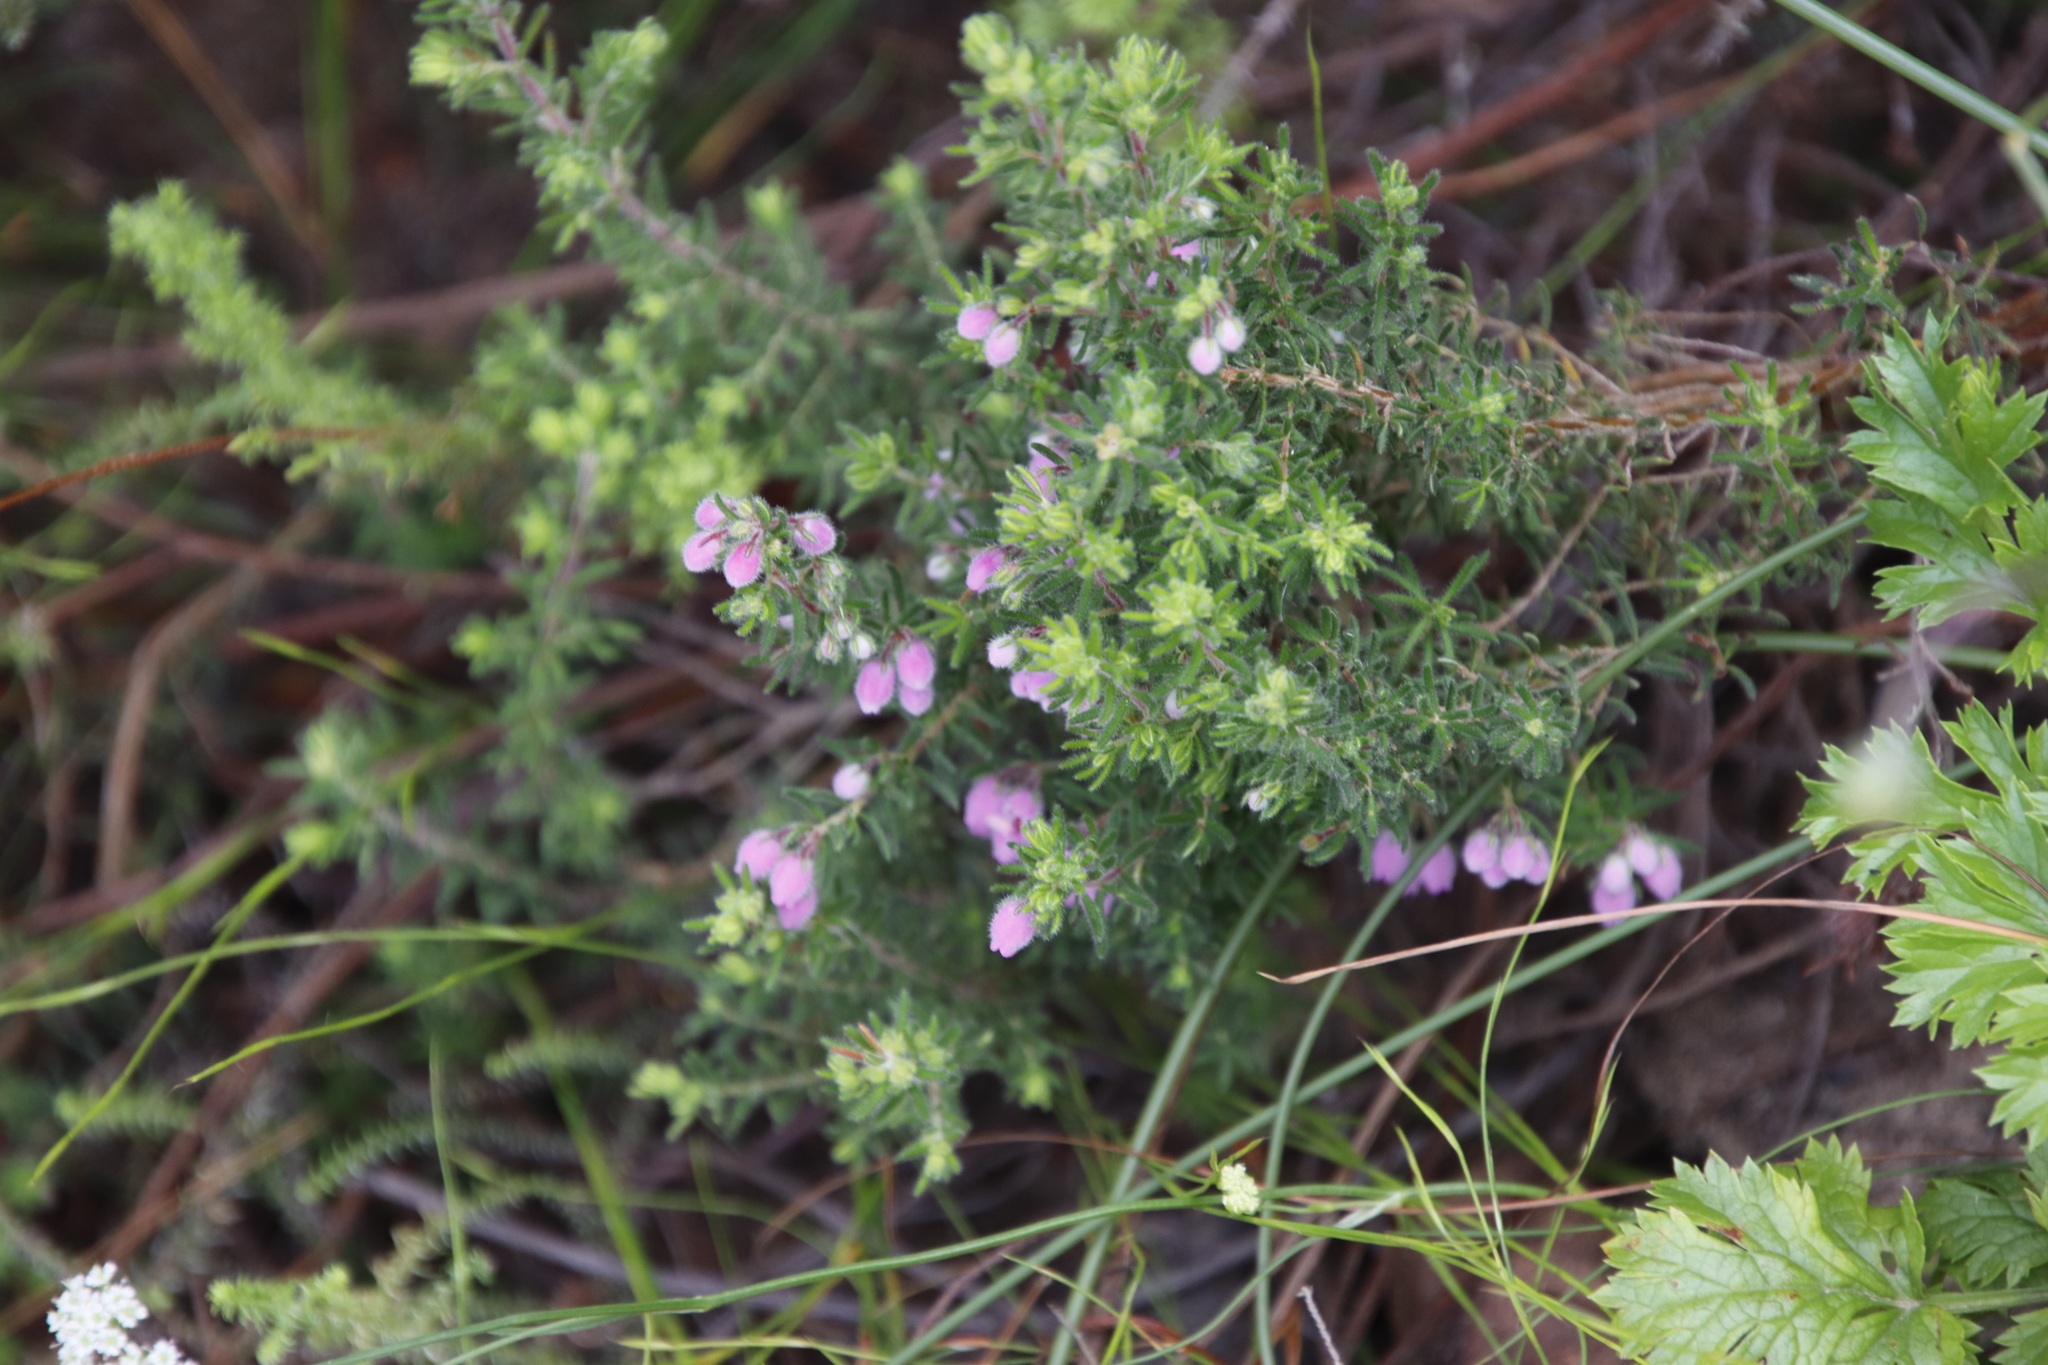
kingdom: Plantae
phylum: Tracheophyta
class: Magnoliopsida
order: Ericales
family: Ericaceae
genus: Erica
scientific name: Erica hirtiflora
